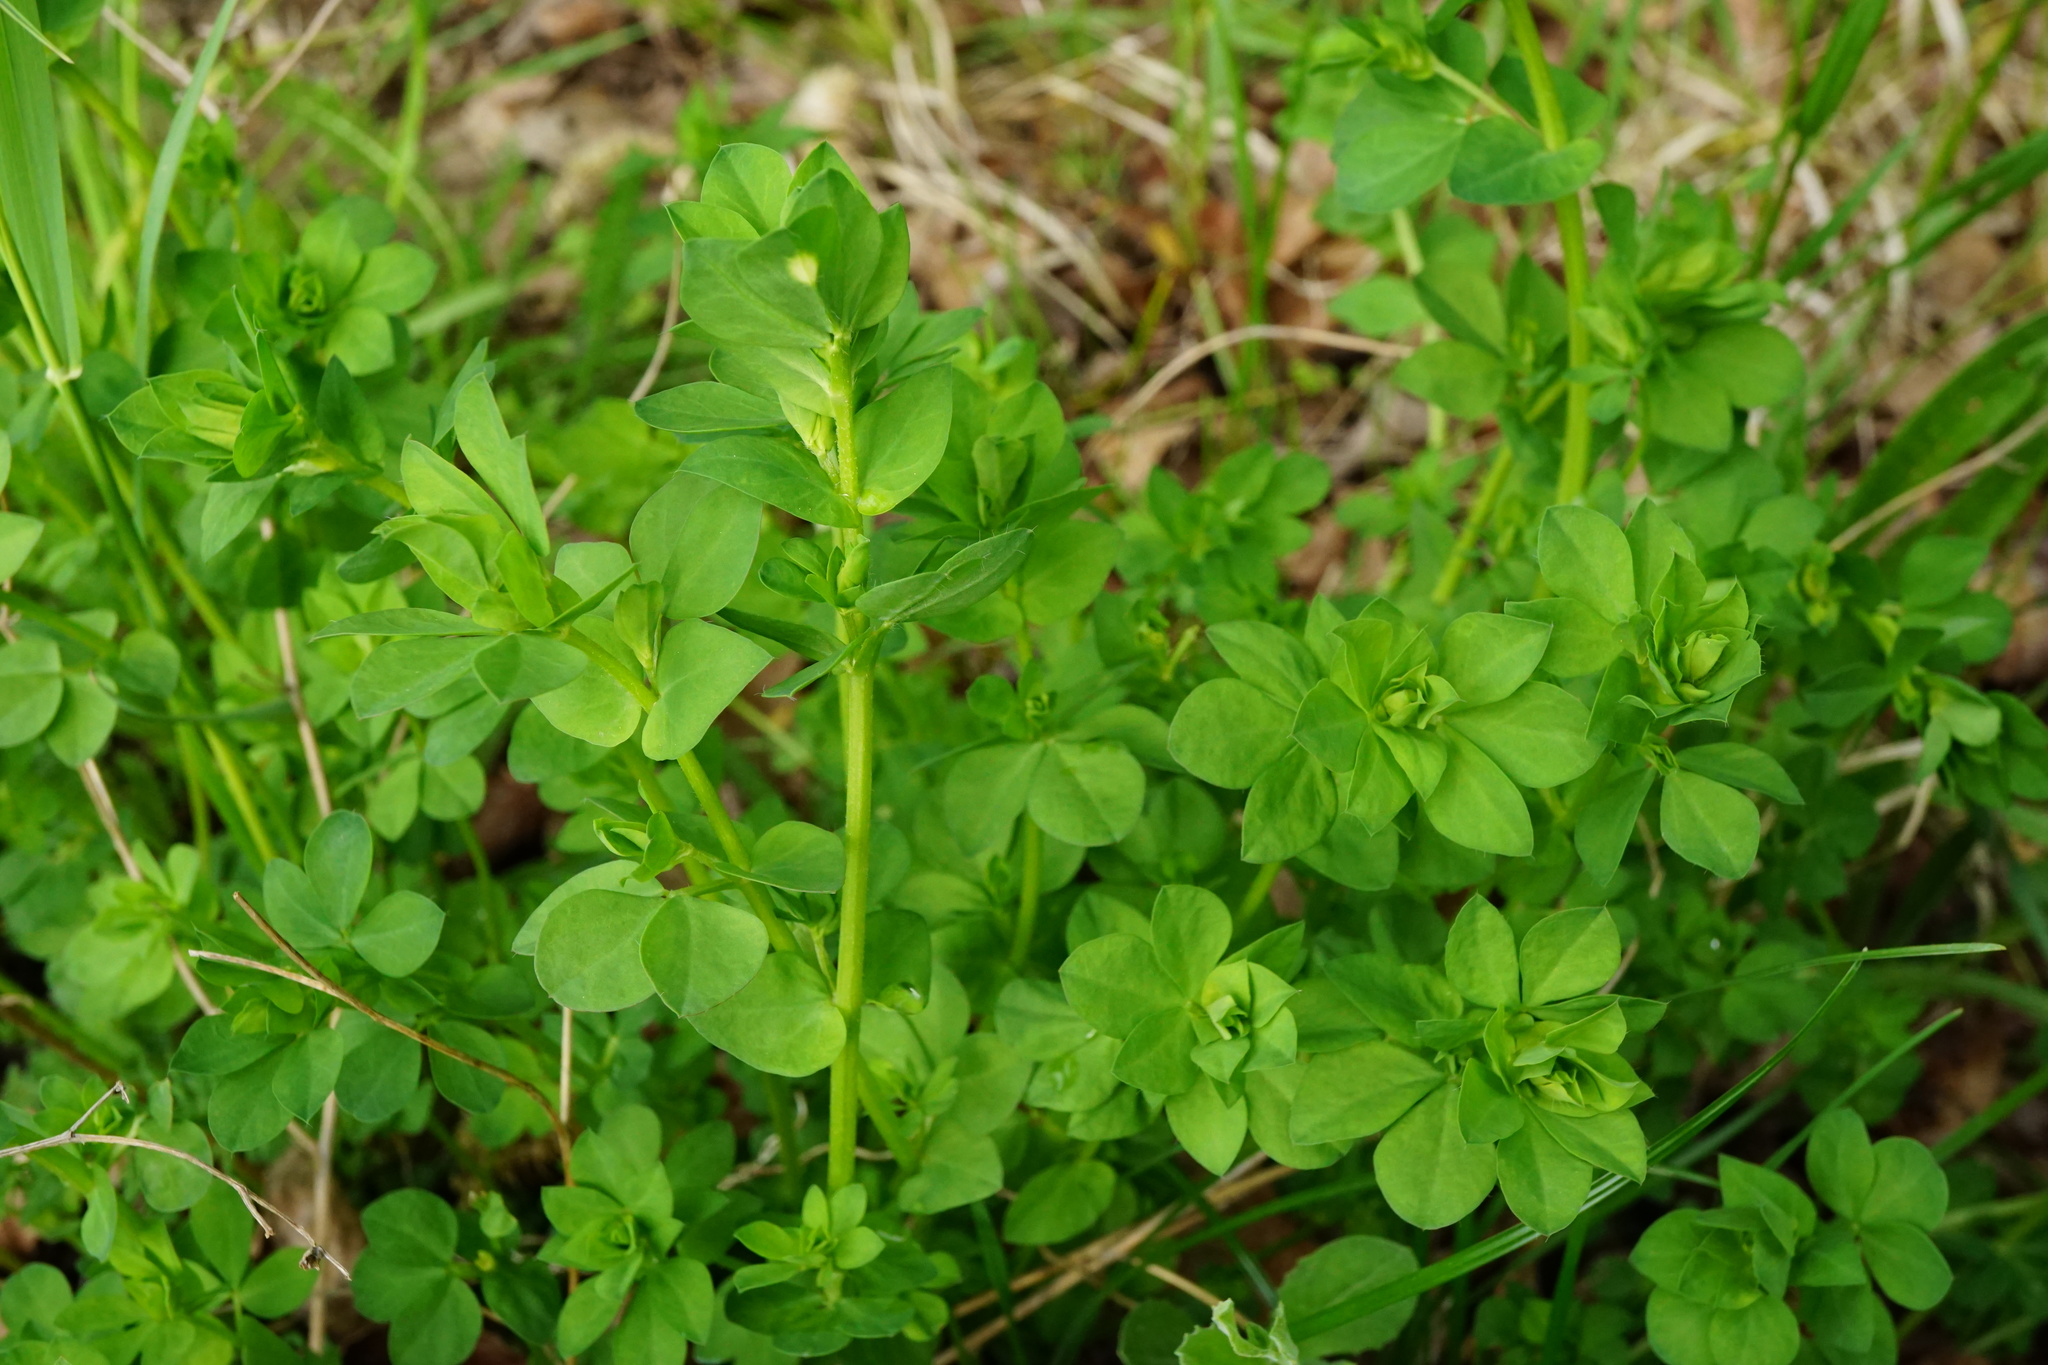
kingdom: Plantae
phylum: Tracheophyta
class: Magnoliopsida
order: Fabales
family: Fabaceae
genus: Lotus
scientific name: Lotus corniculatus
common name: Common bird's-foot-trefoil
